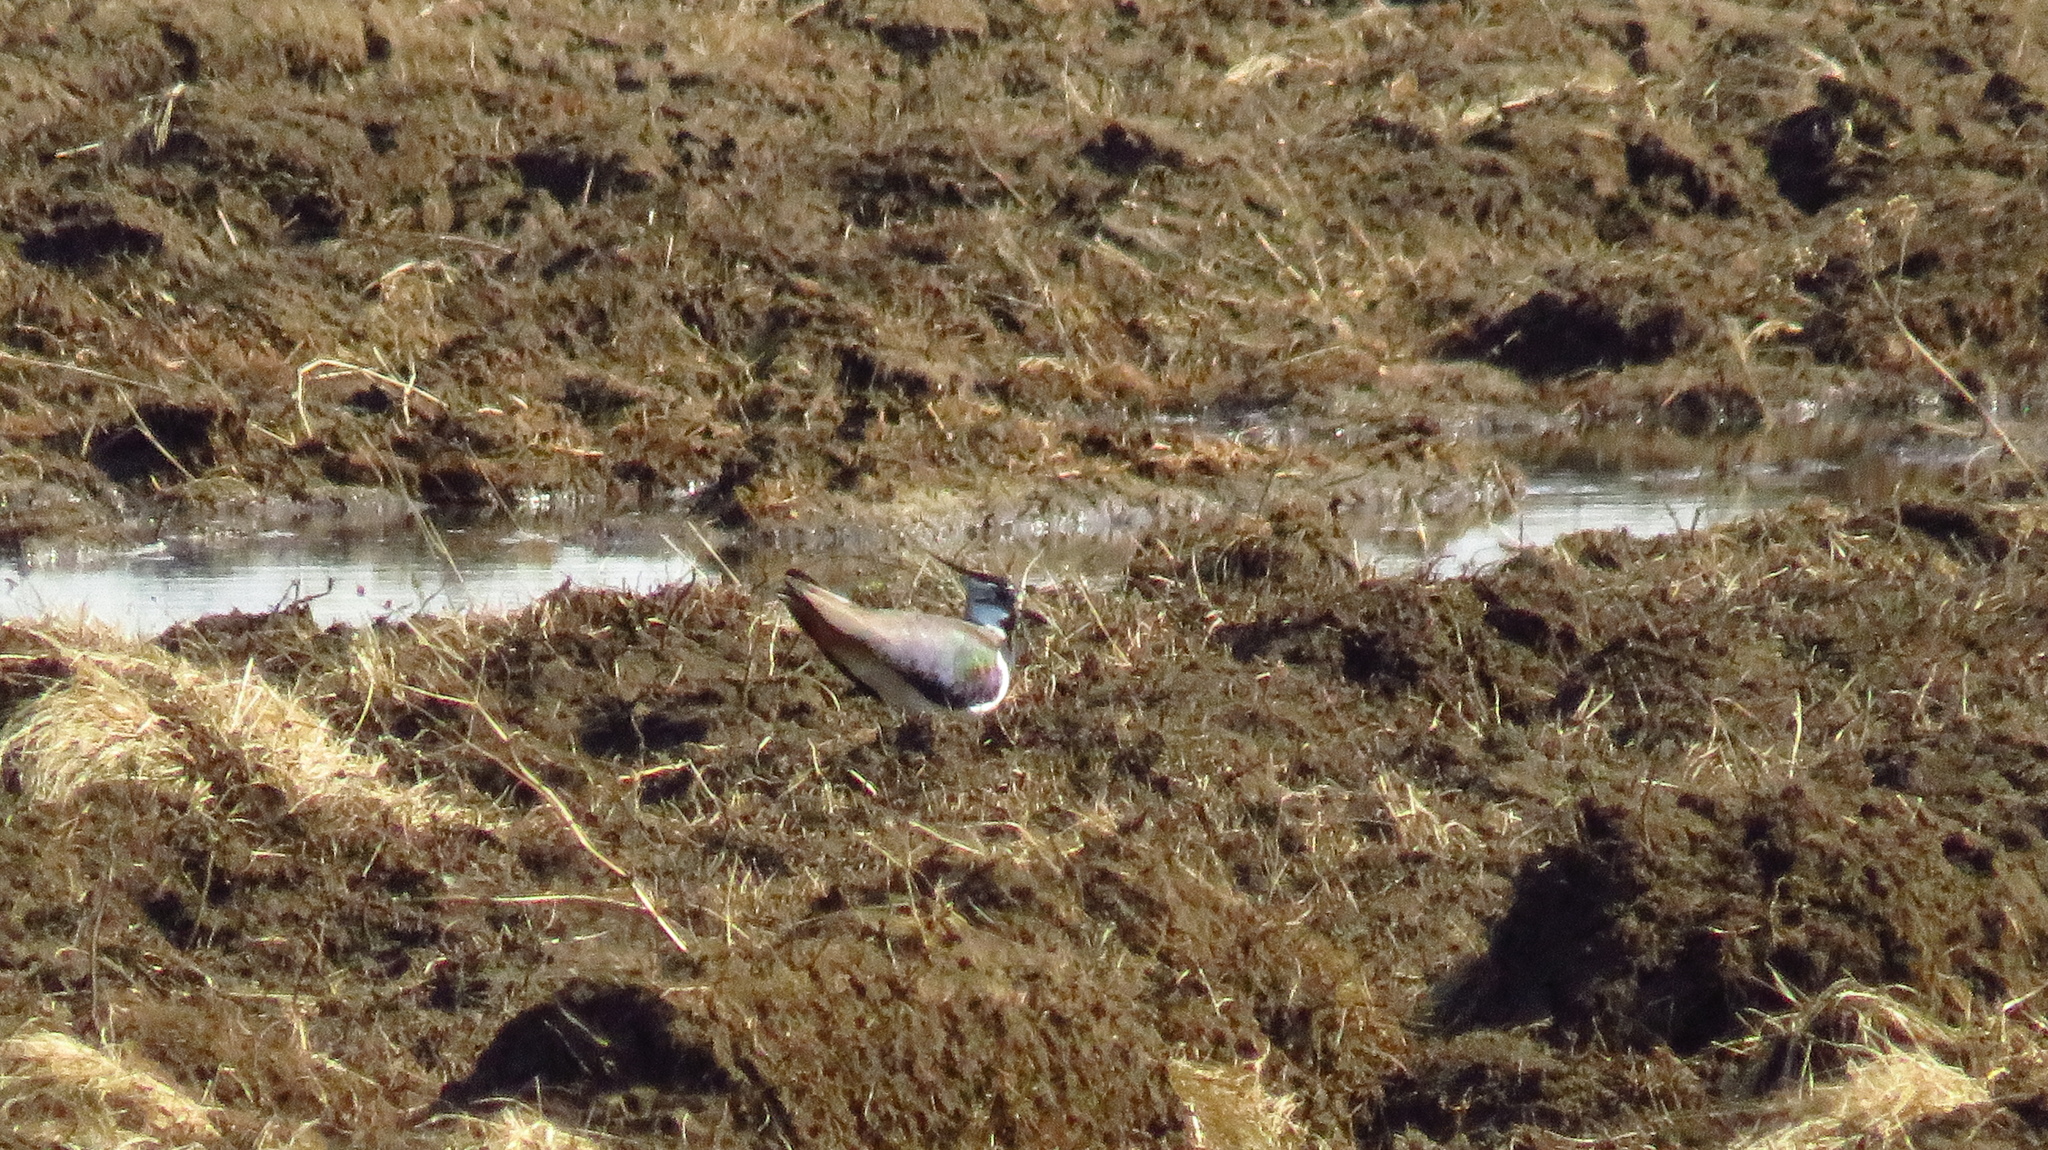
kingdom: Animalia
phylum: Chordata
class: Aves
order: Charadriiformes
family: Charadriidae
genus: Vanellus
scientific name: Vanellus vanellus
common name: Northern lapwing
